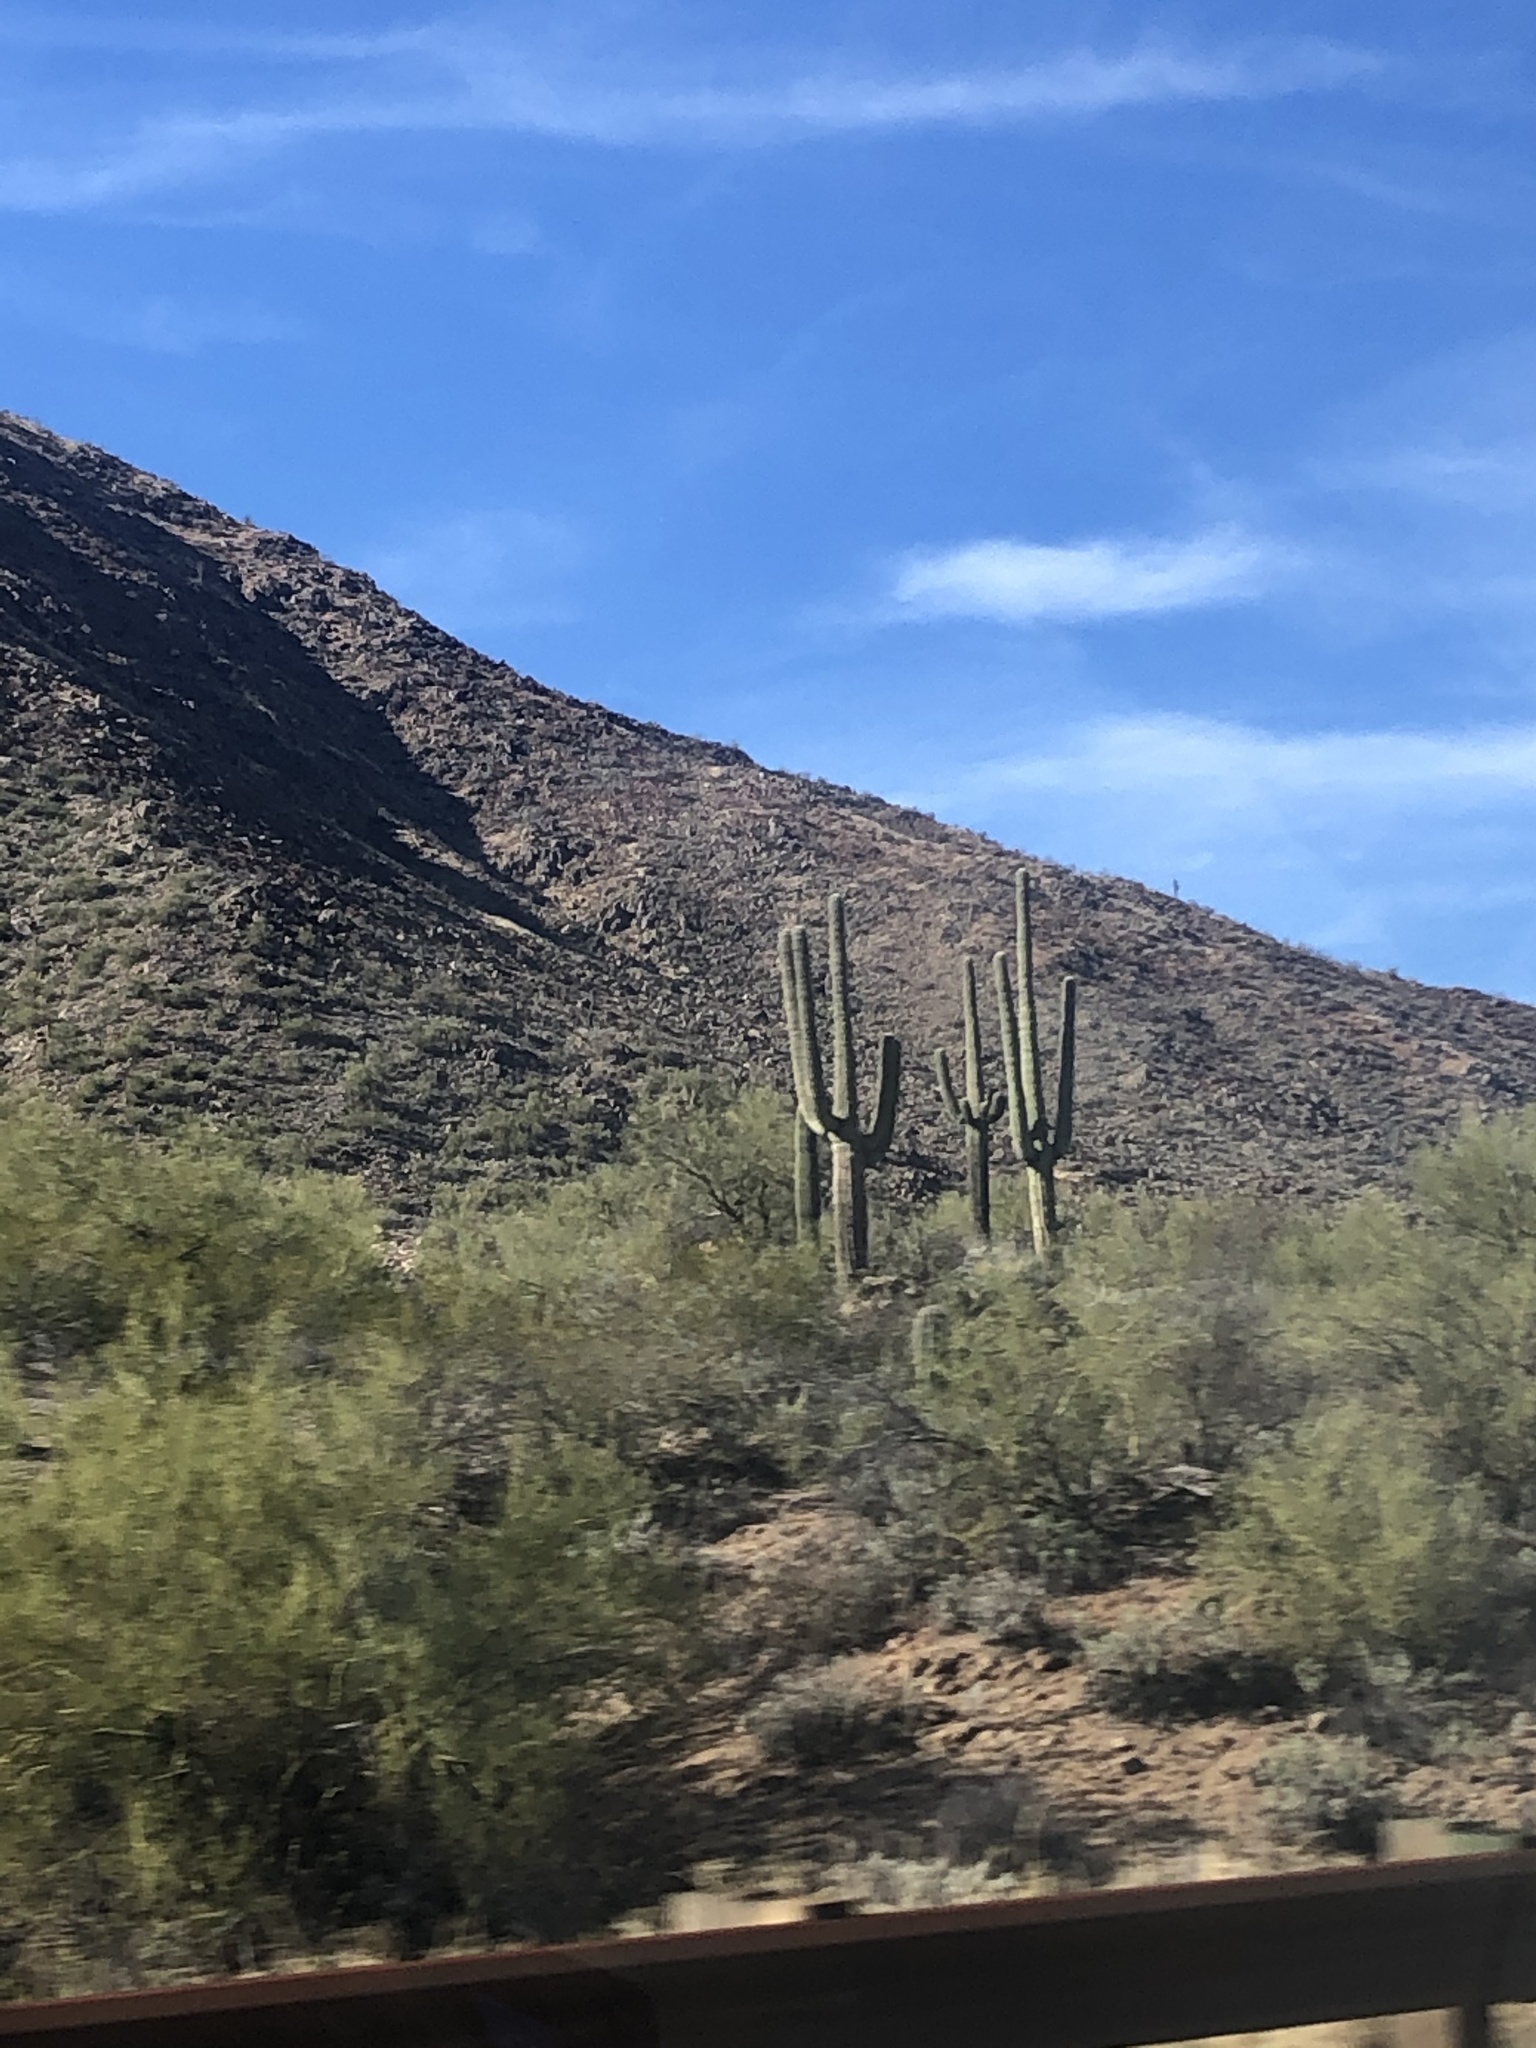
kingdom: Plantae
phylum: Tracheophyta
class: Magnoliopsida
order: Caryophyllales
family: Cactaceae
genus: Carnegiea
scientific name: Carnegiea gigantea
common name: Saguaro
